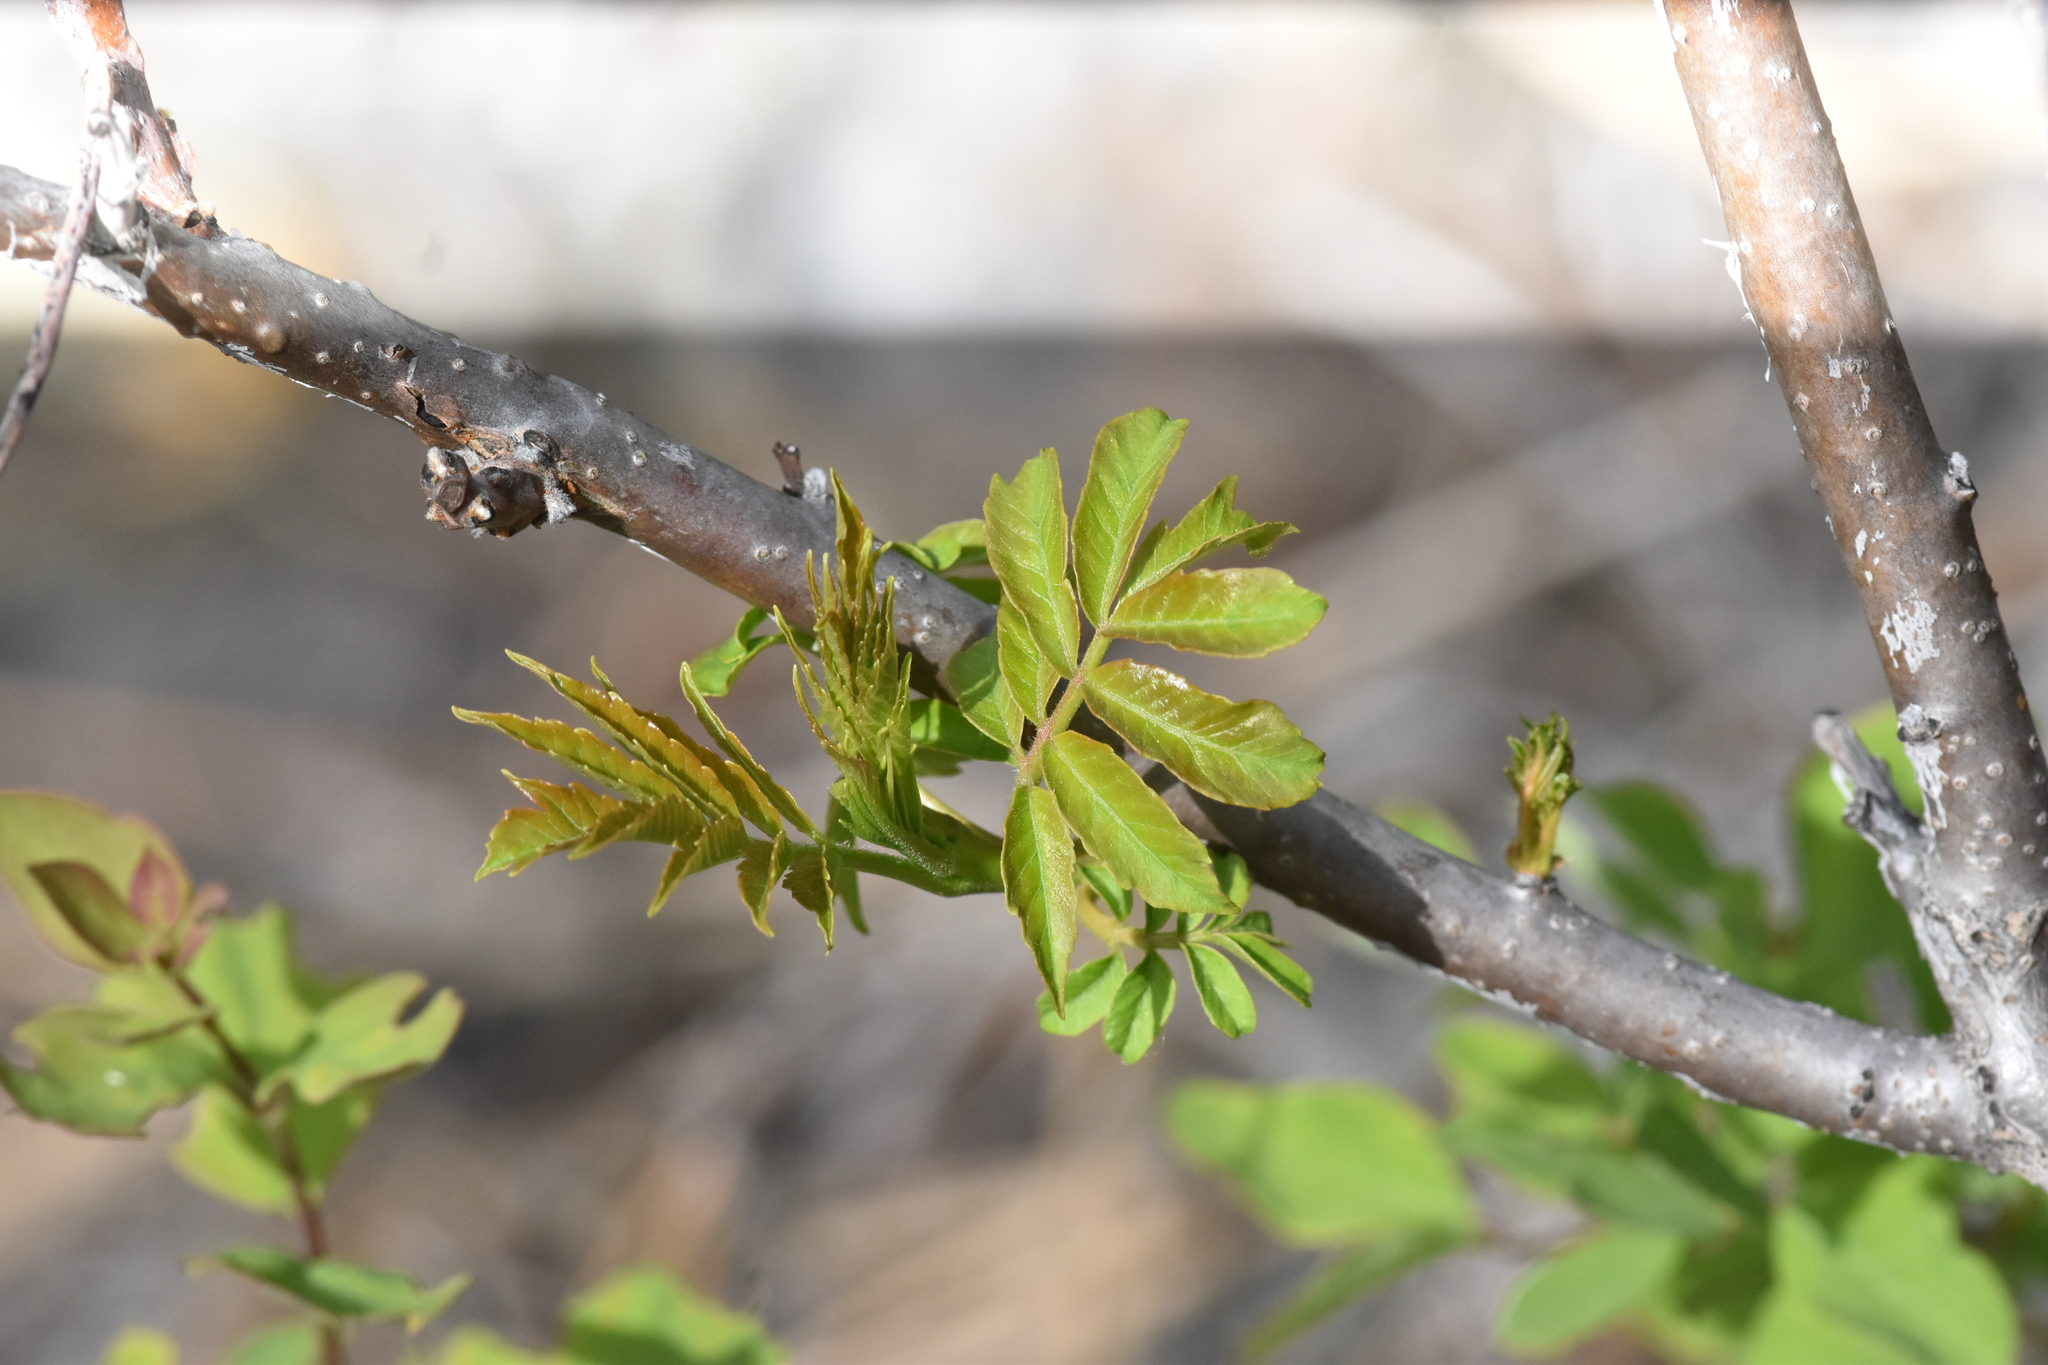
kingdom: Plantae
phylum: Tracheophyta
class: Magnoliopsida
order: Sapindales
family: Anacardiaceae
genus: Rhus
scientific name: Rhus glabra
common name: Scarlet sumac
